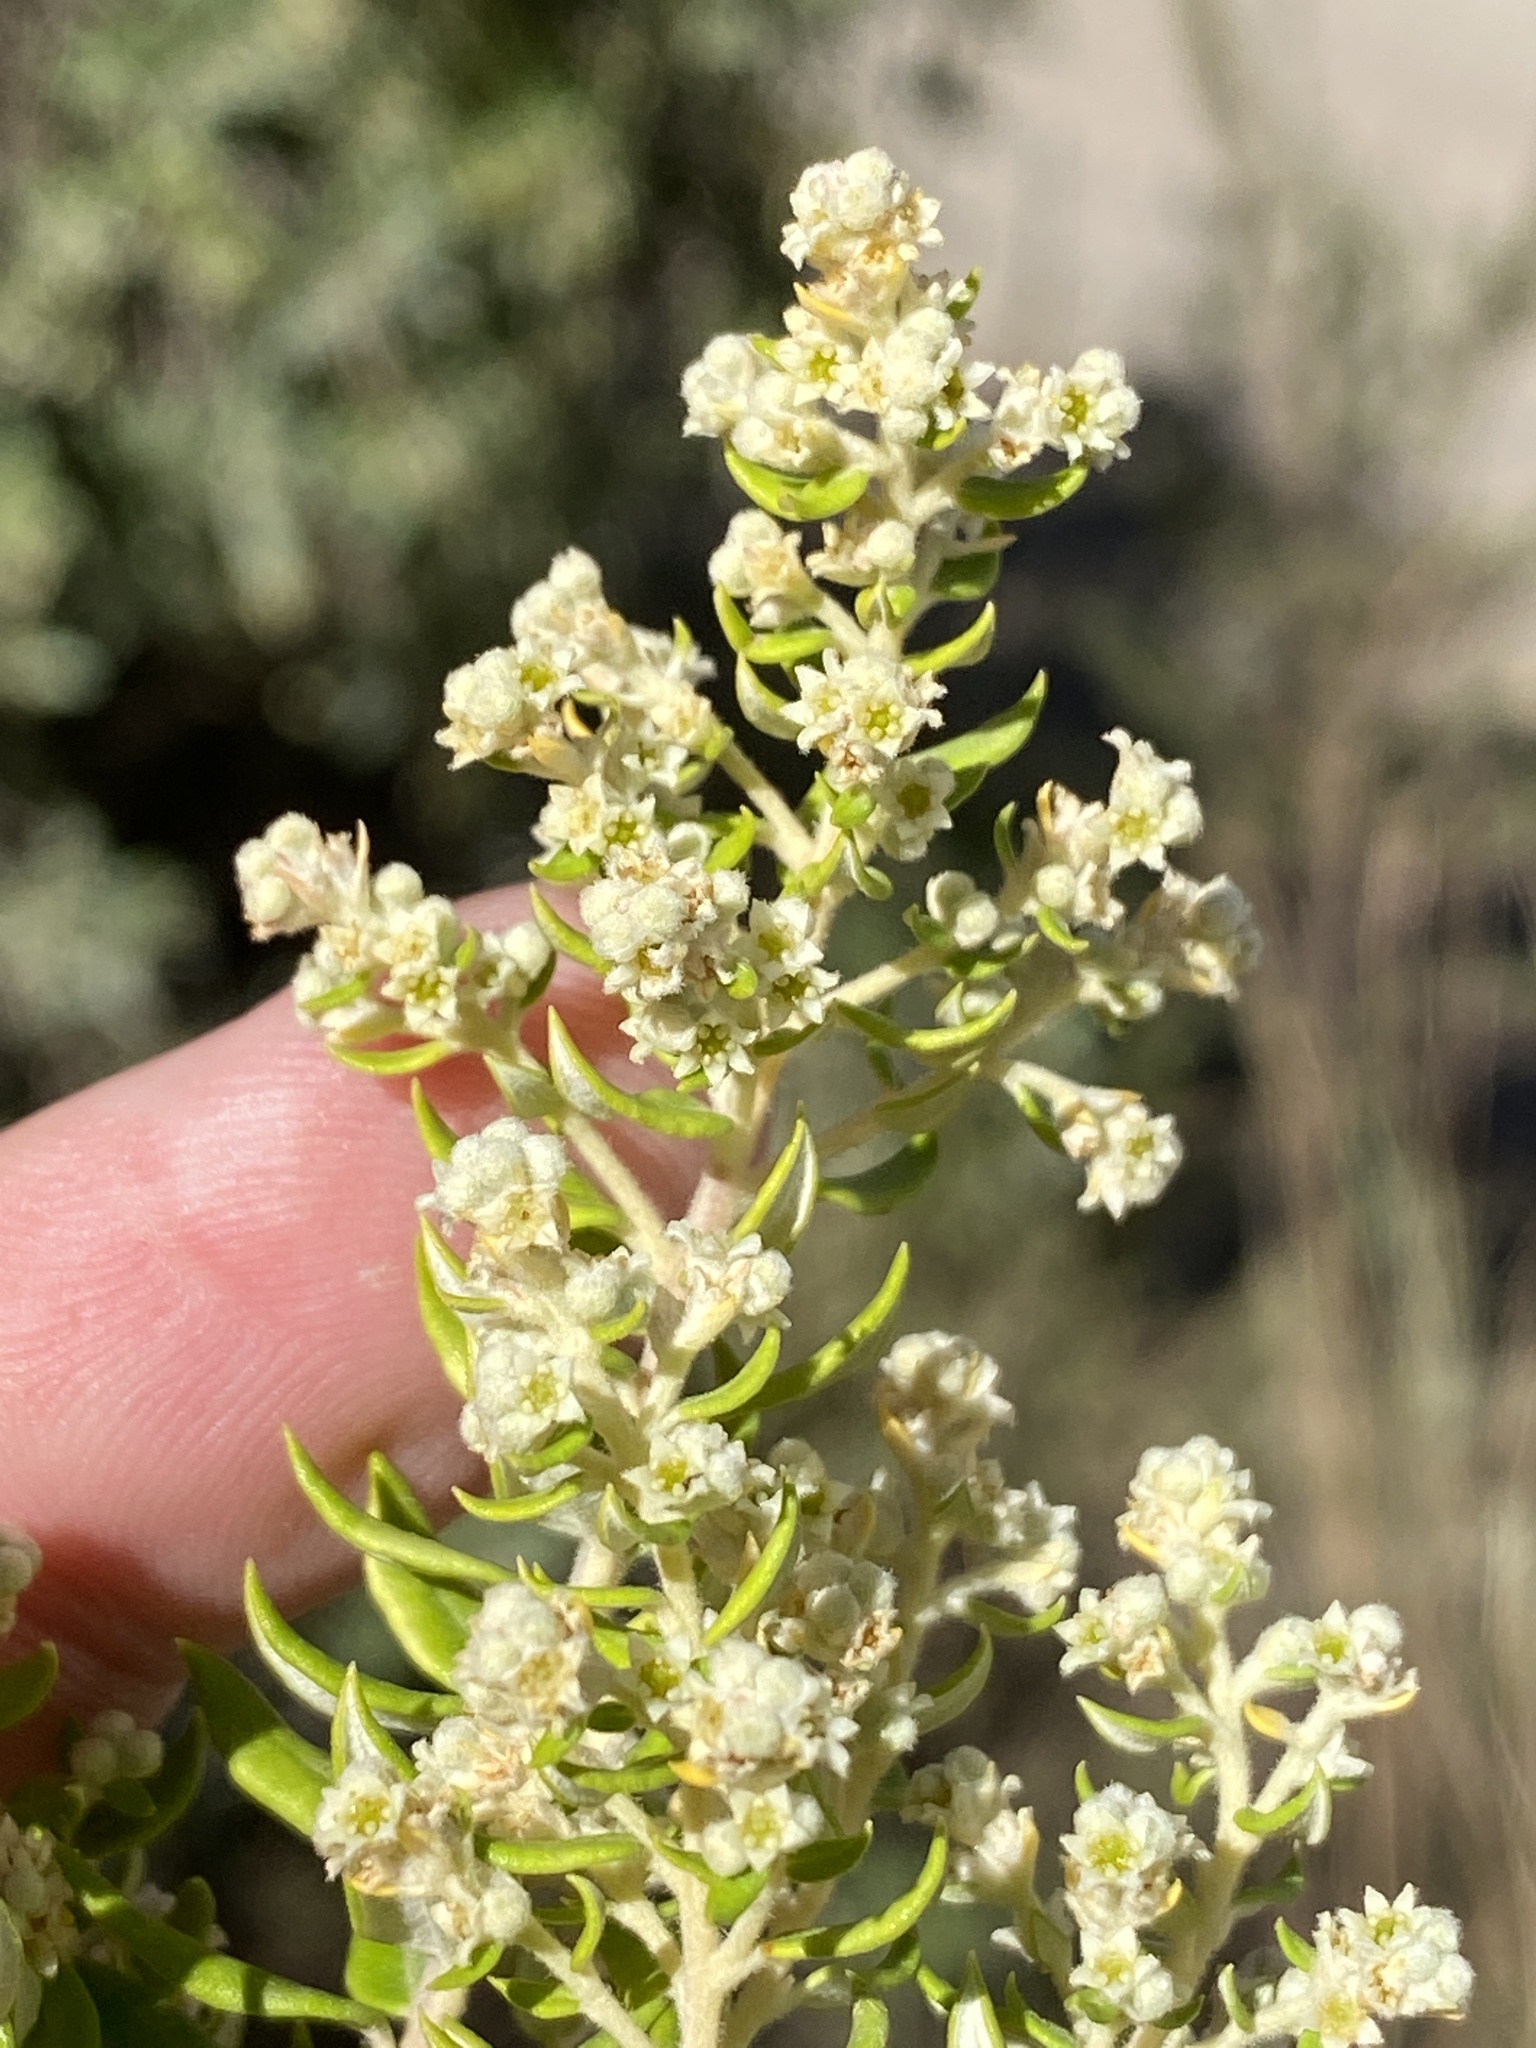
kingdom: Plantae
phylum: Tracheophyta
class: Magnoliopsida
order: Rosales
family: Rhamnaceae
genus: Phylica
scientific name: Phylica paniculata
